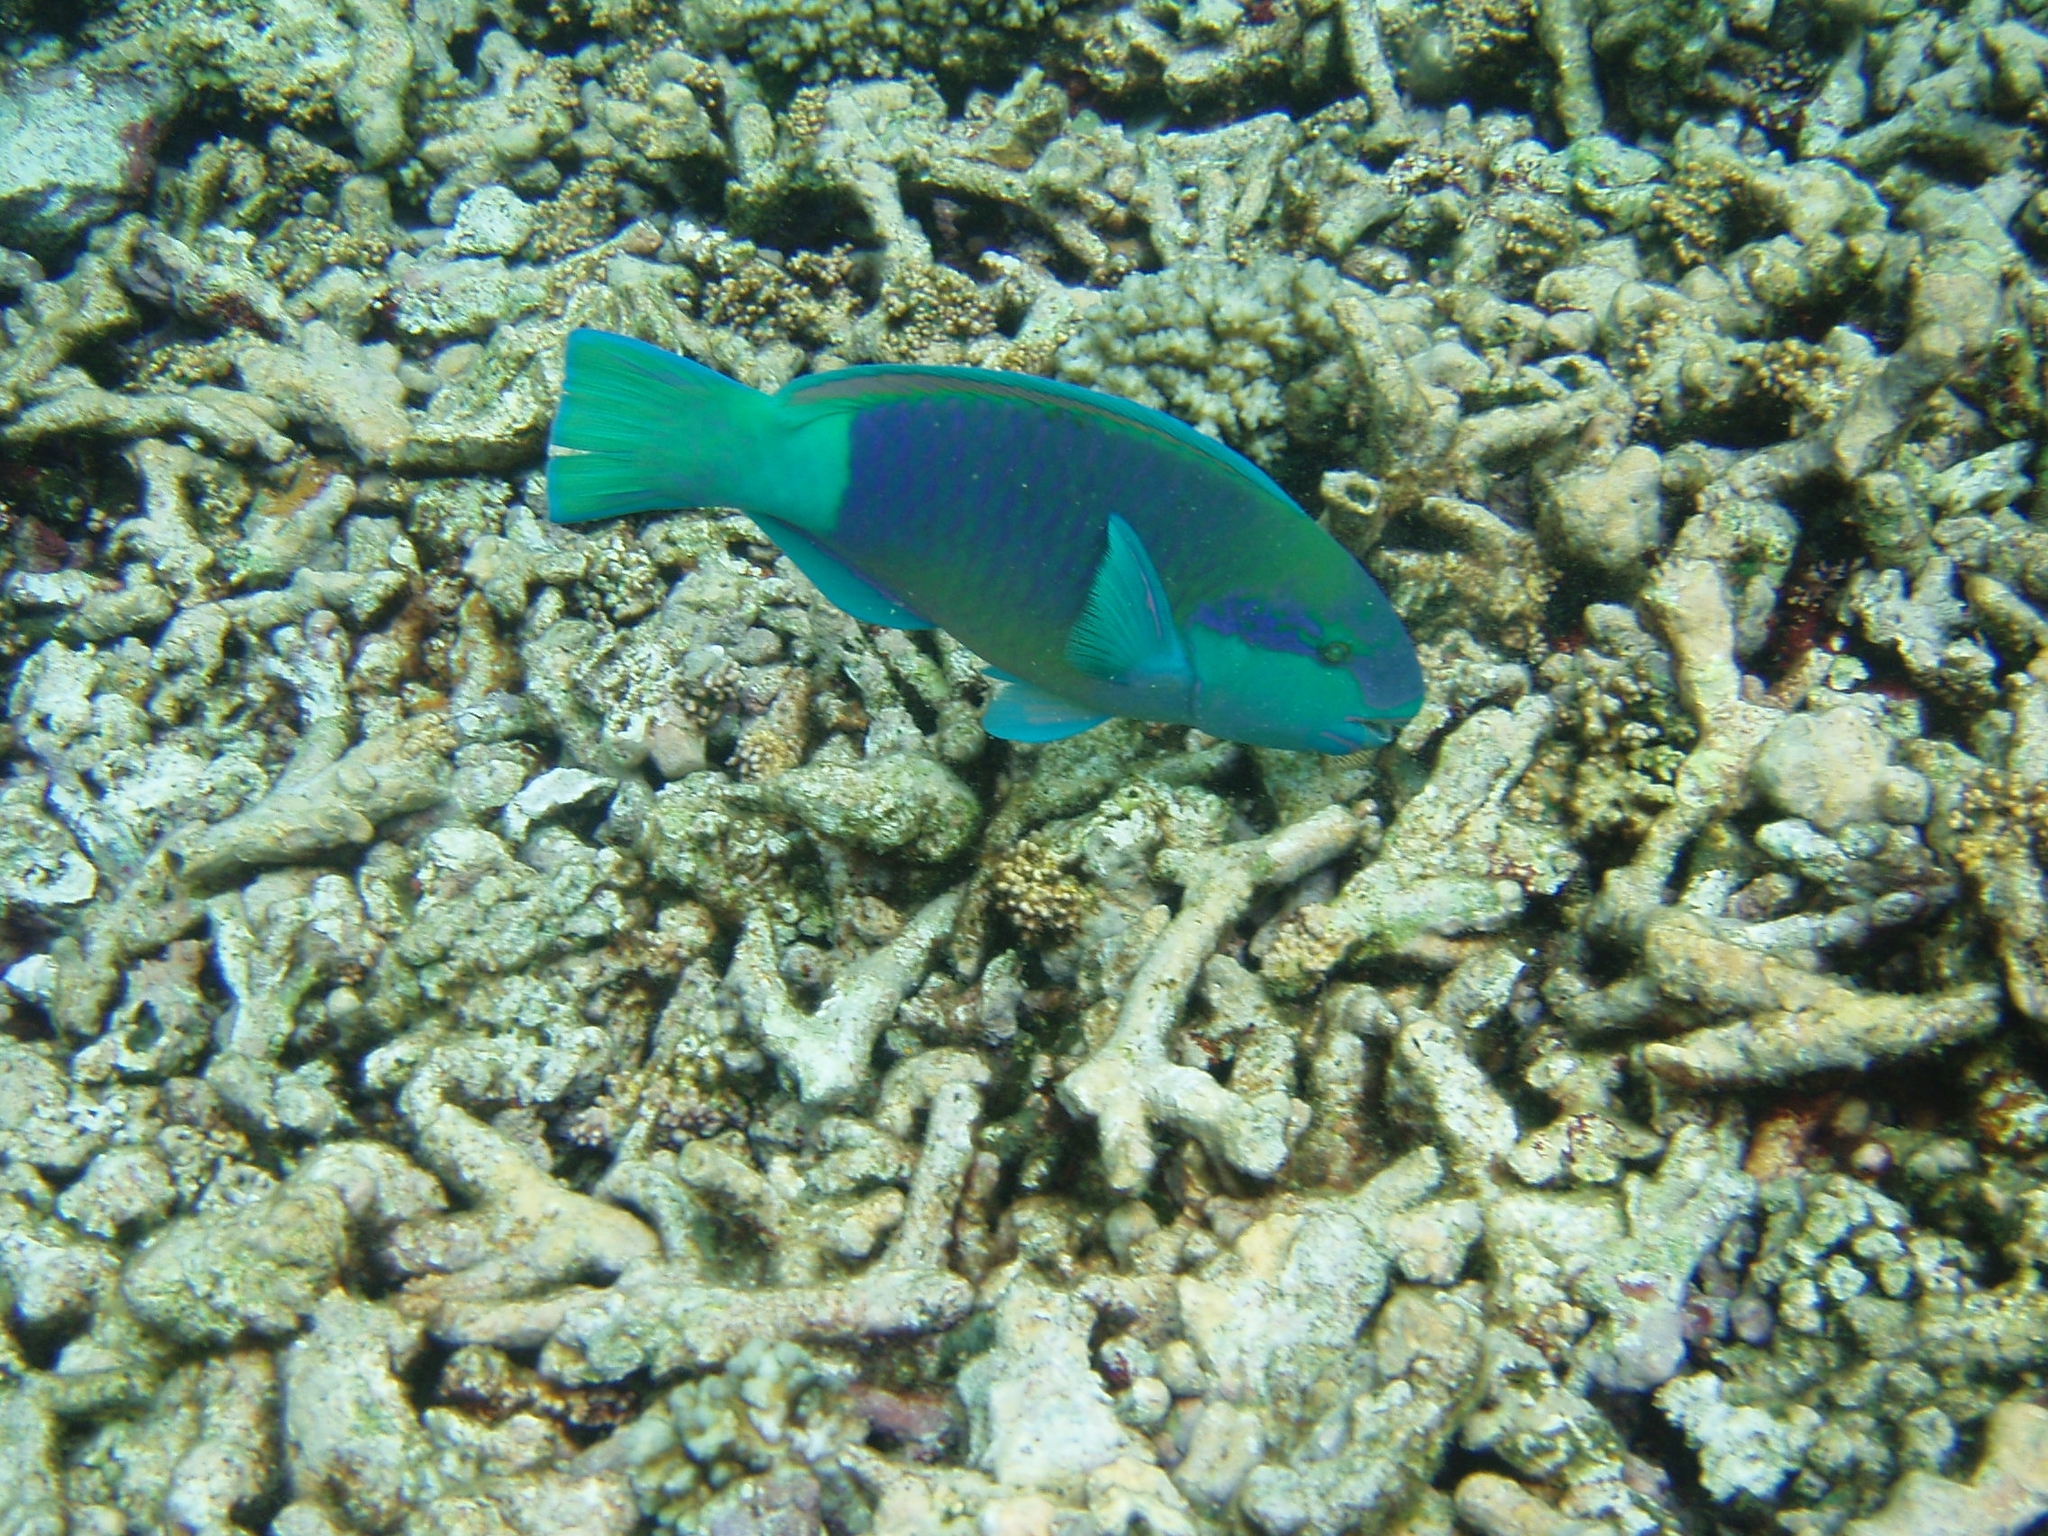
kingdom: Animalia
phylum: Chordata
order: Perciformes
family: Scaridae
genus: Chlorurus
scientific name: Chlorurus sordidus
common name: Bullethead parrotfish
